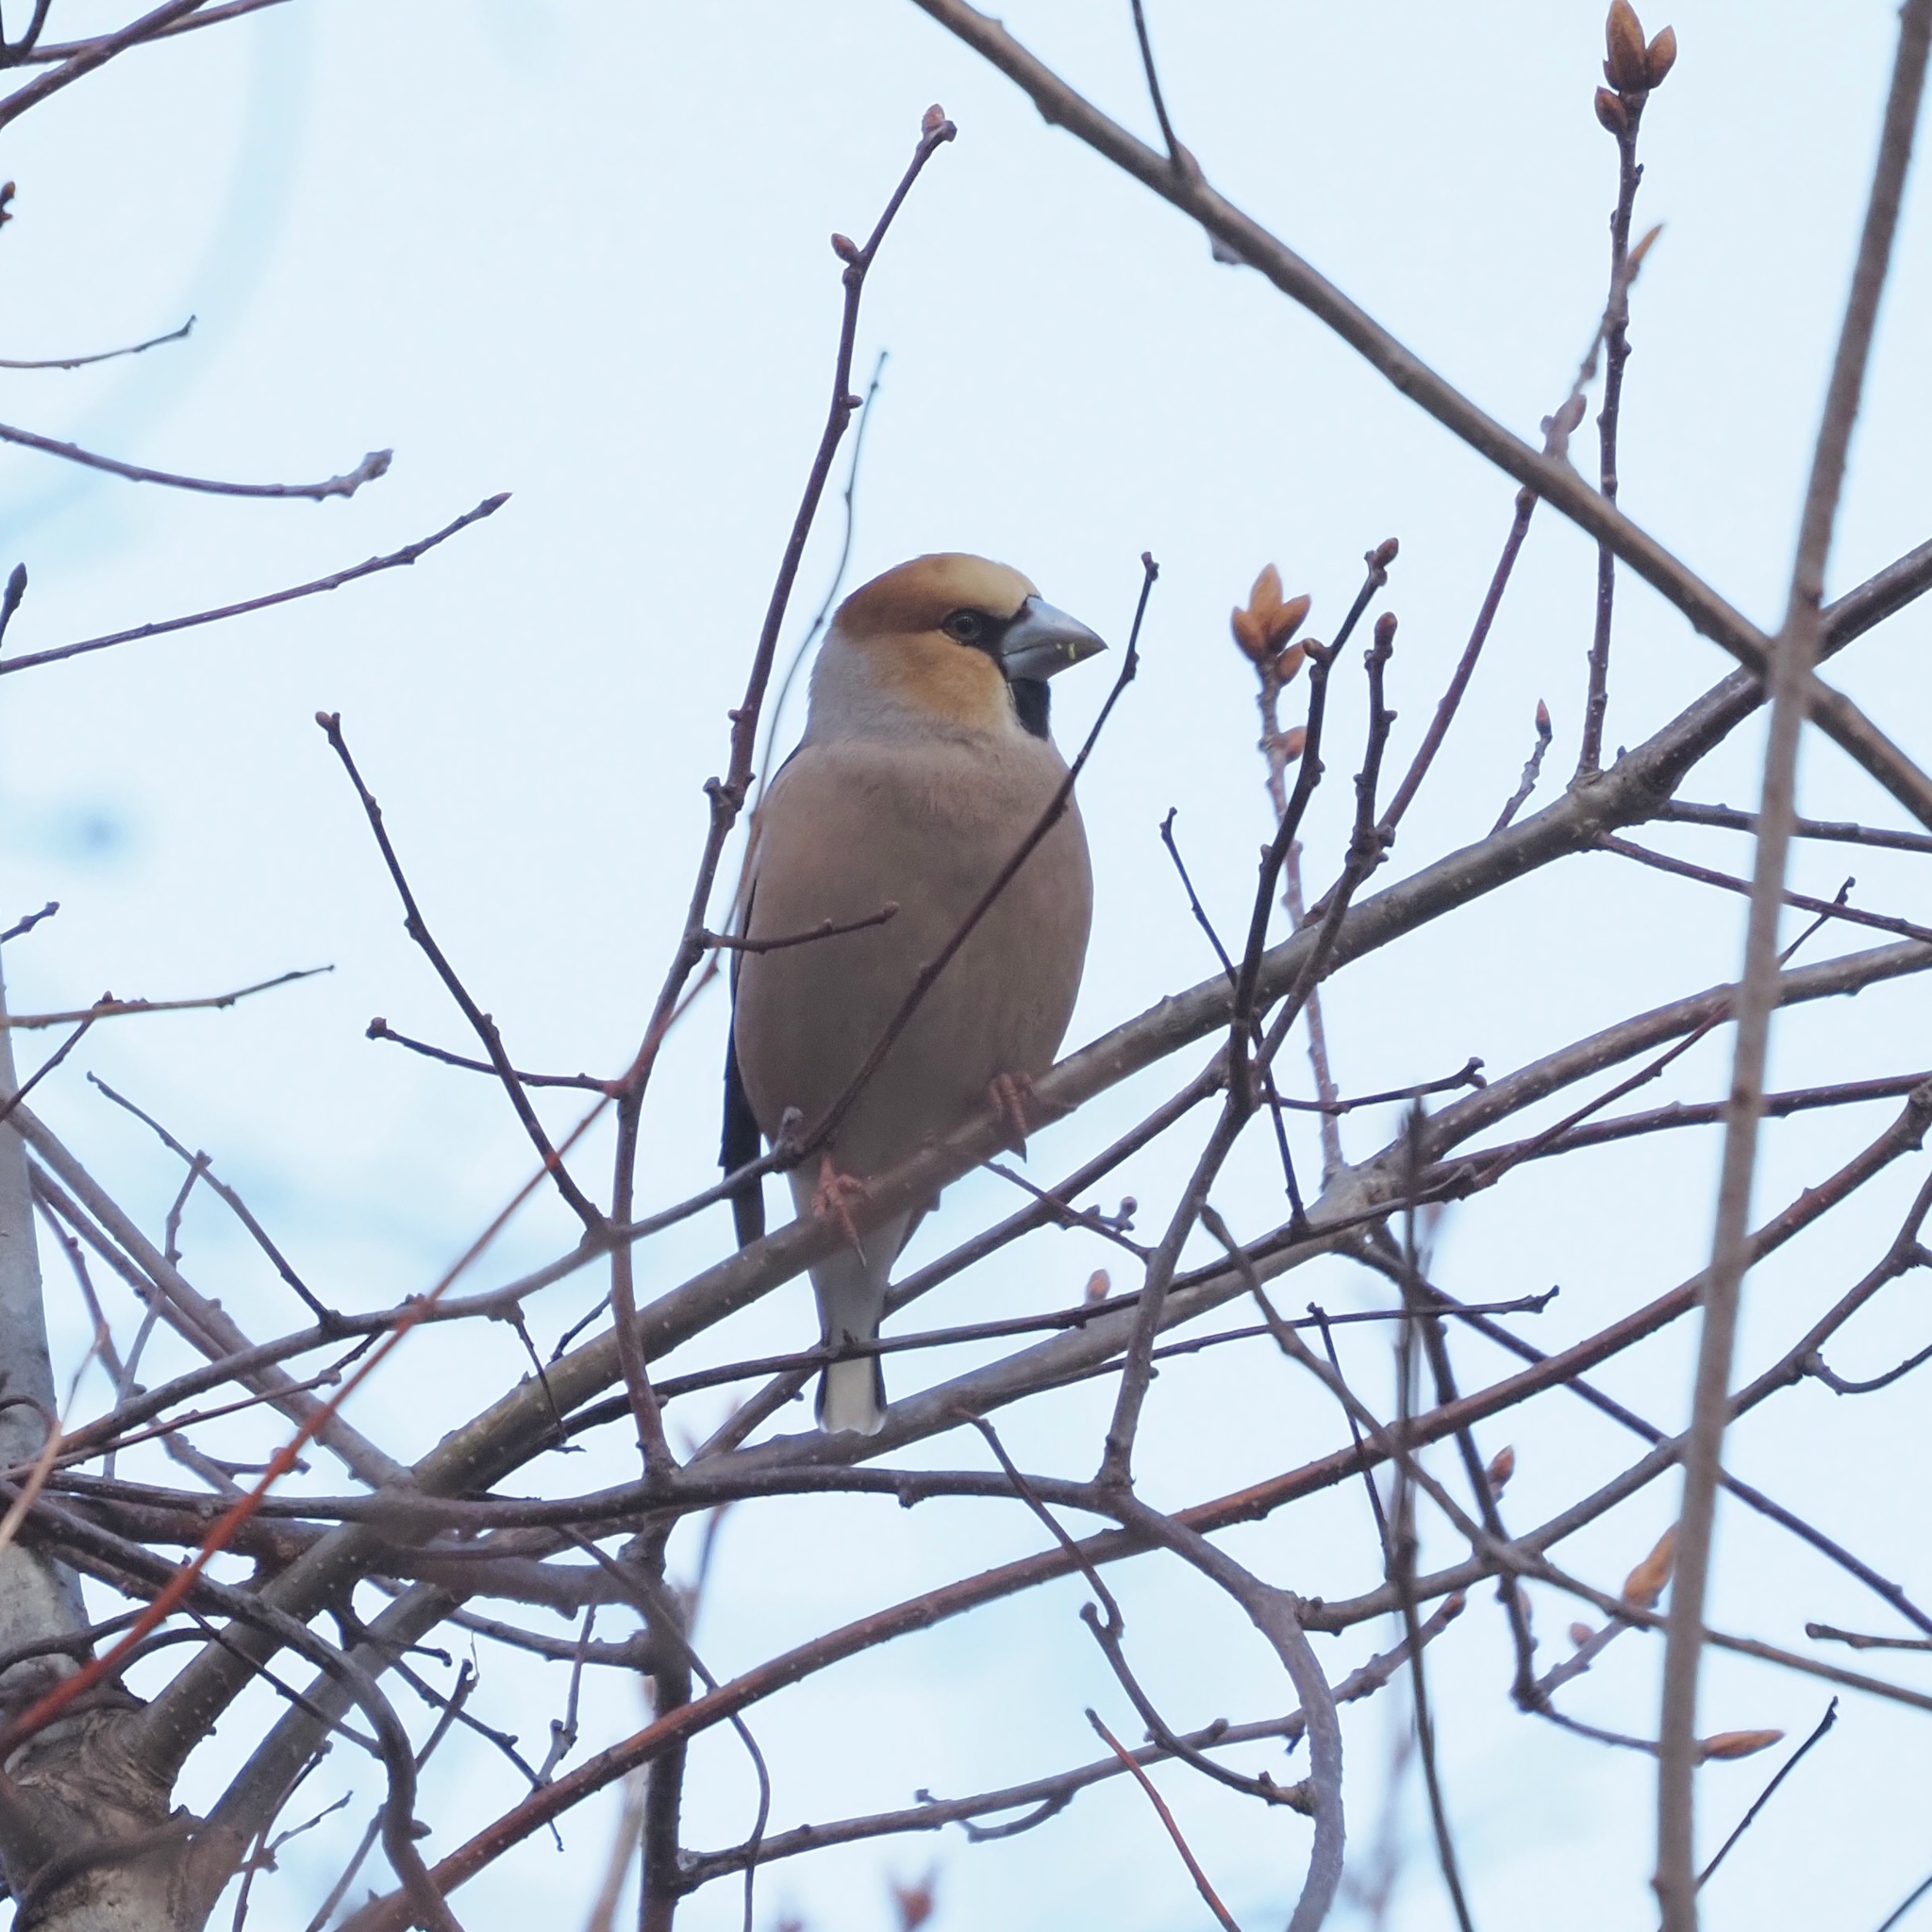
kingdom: Animalia
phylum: Chordata
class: Aves
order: Passeriformes
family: Fringillidae
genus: Coccothraustes
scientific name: Coccothraustes coccothraustes
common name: Hawfinch
